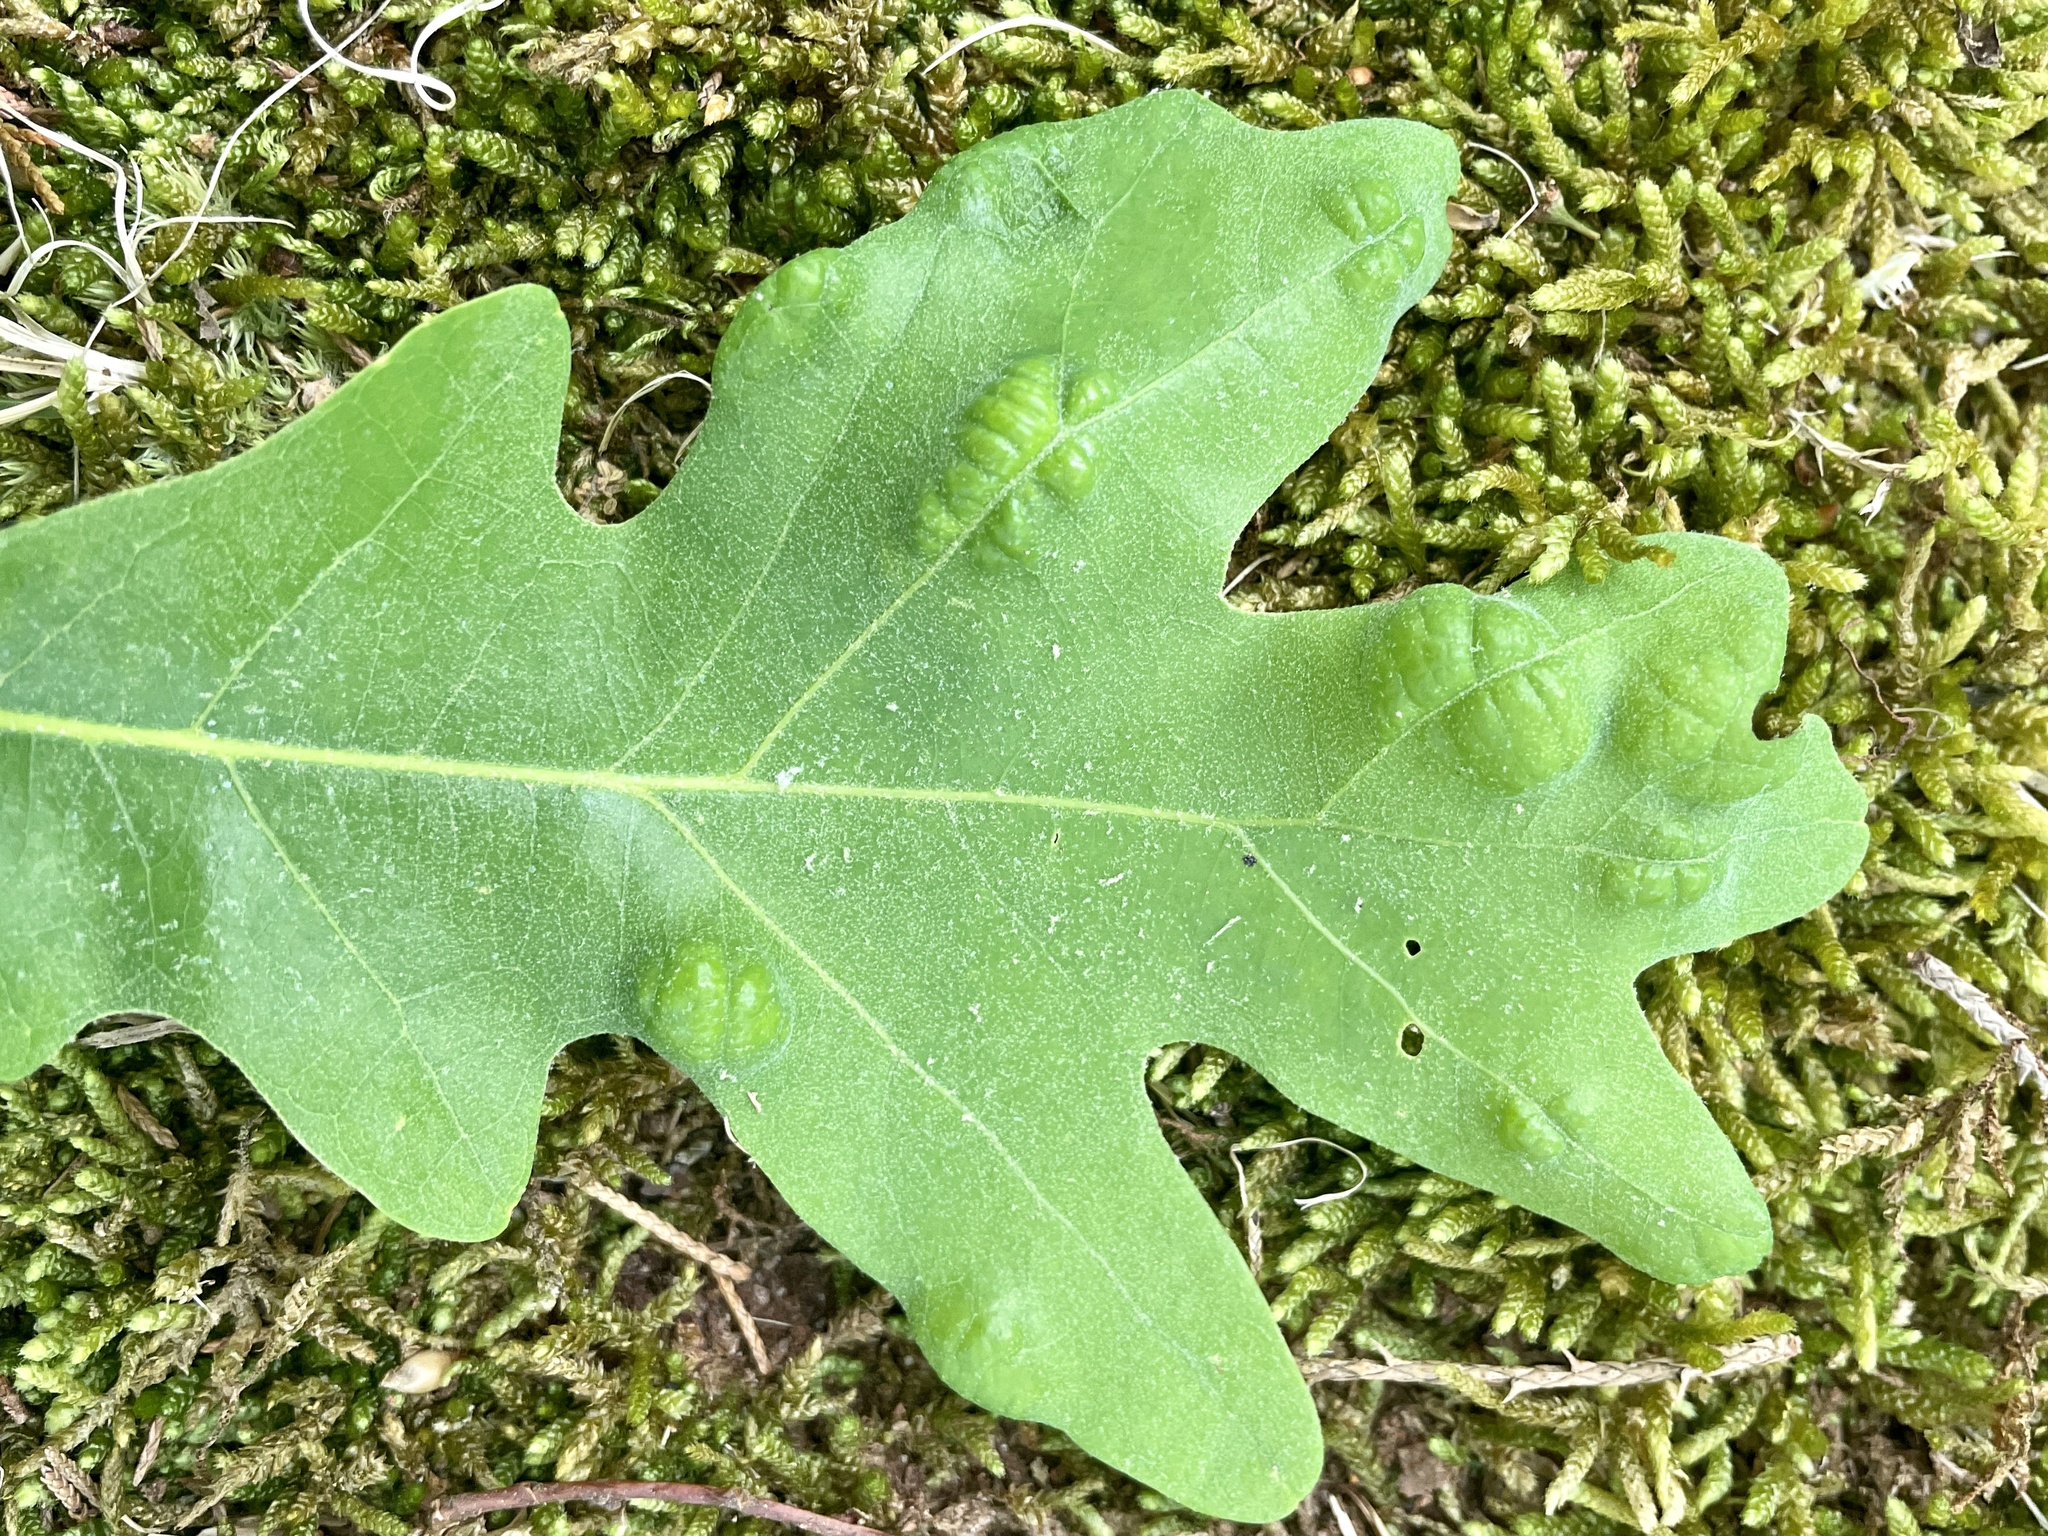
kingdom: Fungi
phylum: Ascomycota
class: Taphrinomycetes
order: Taphrinales
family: Taphrinaceae
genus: Taphrina
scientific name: Taphrina caerulescens
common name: Oak leaf blister
